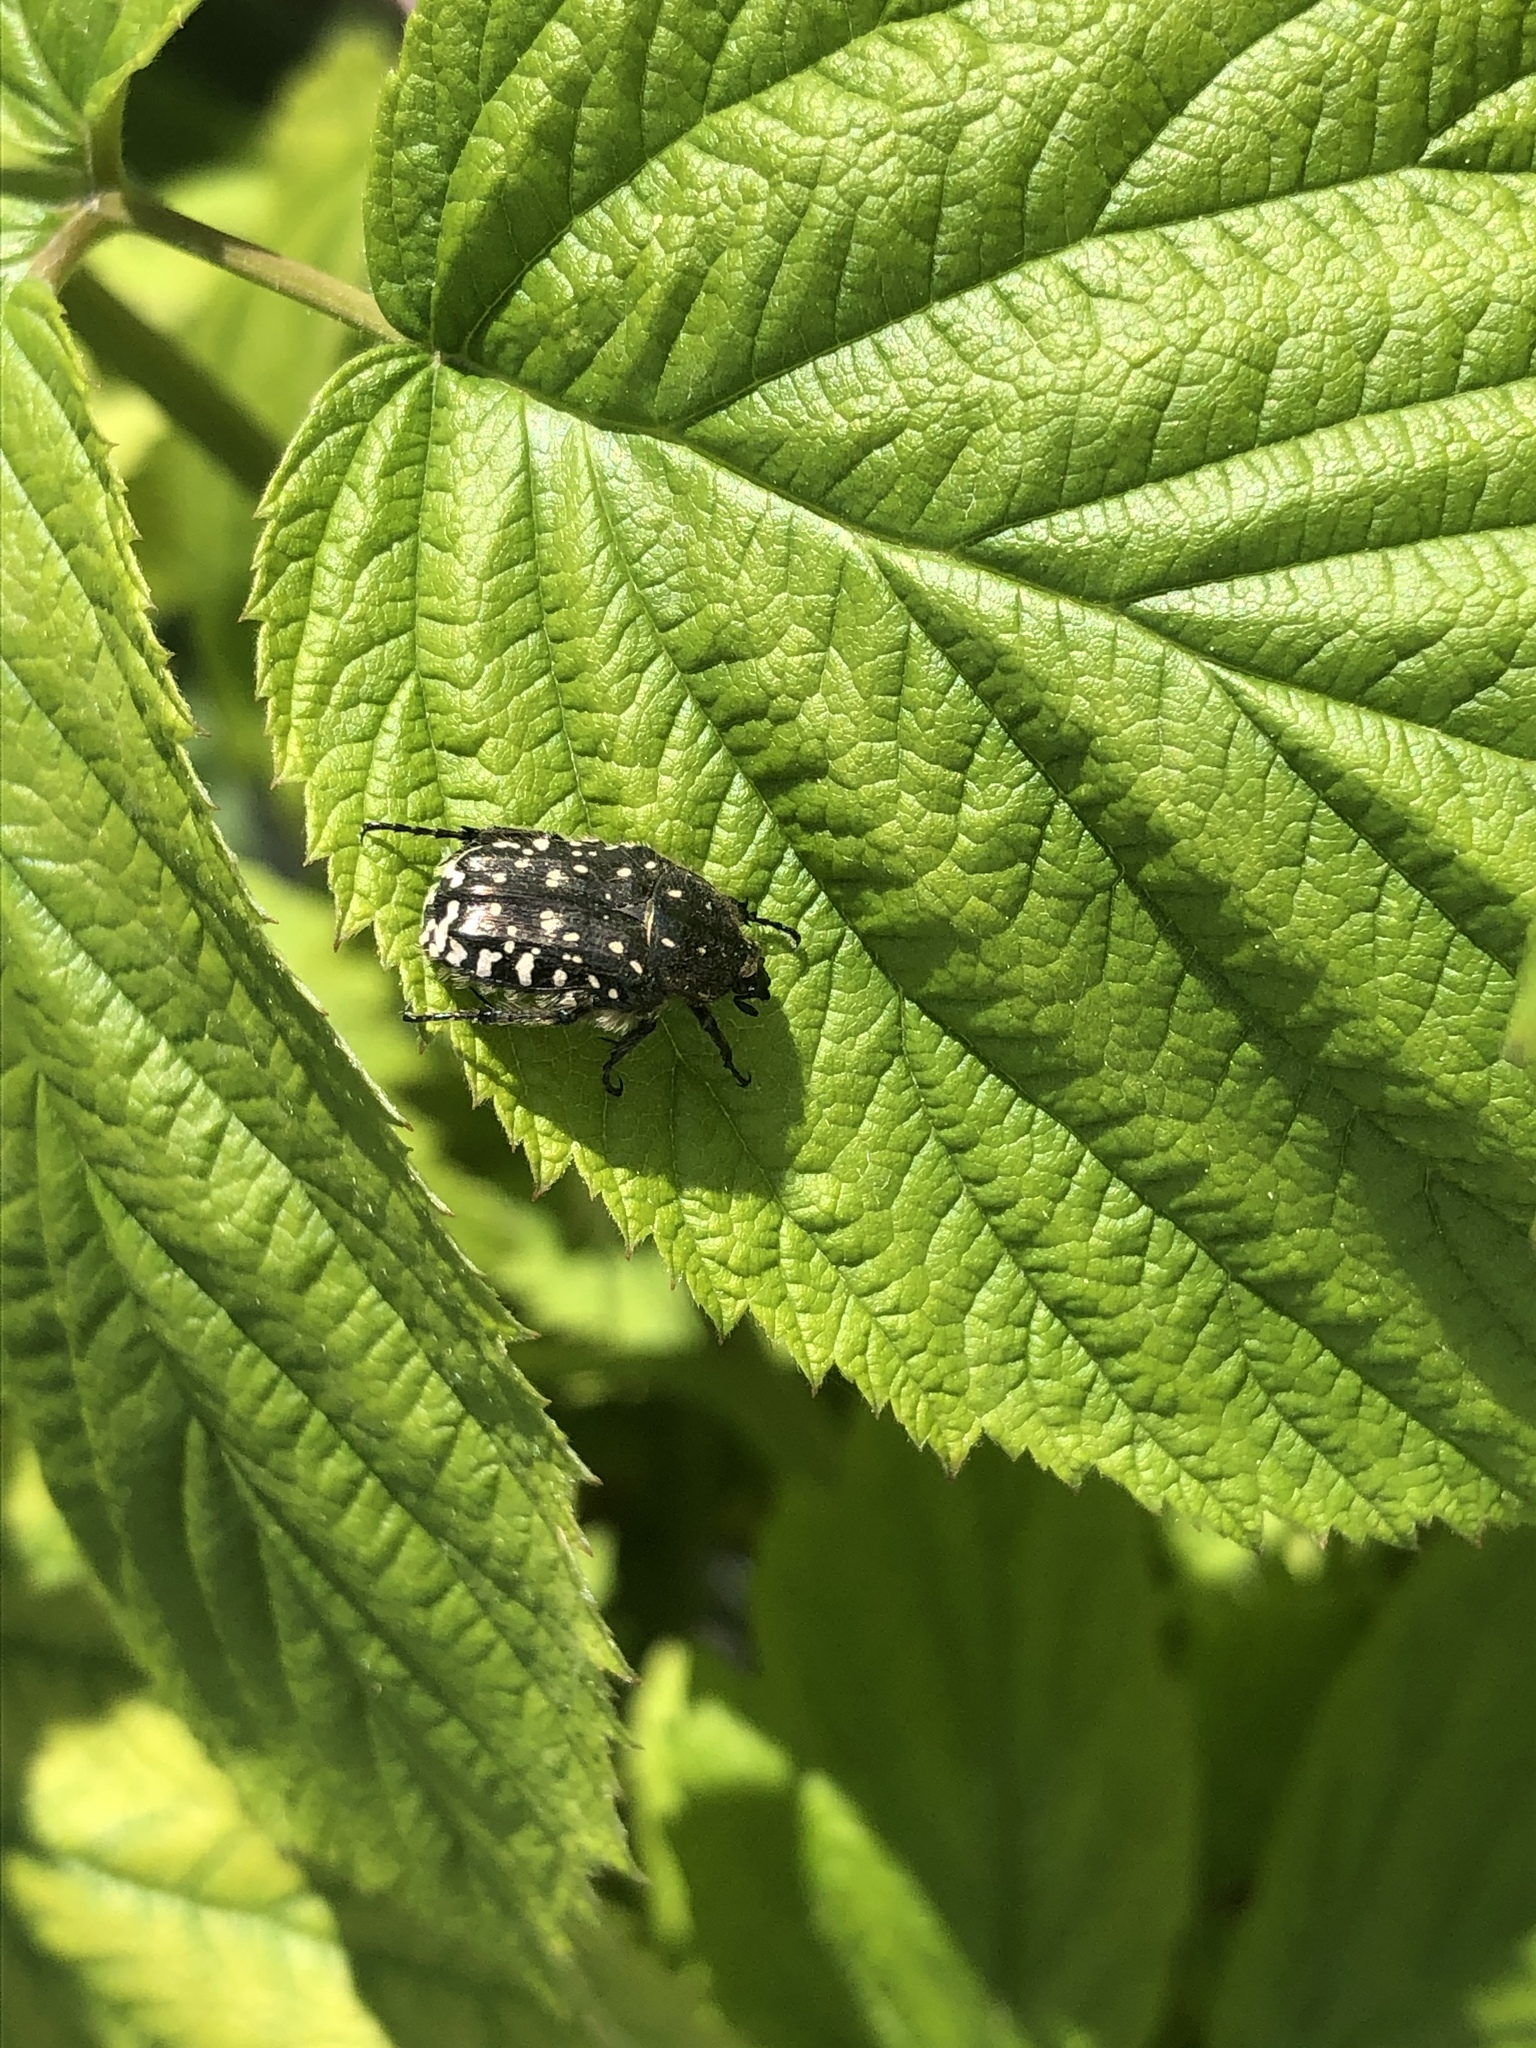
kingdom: Animalia
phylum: Arthropoda
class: Insecta
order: Coleoptera
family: Scarabaeidae
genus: Oxythyrea
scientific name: Oxythyrea funesta
